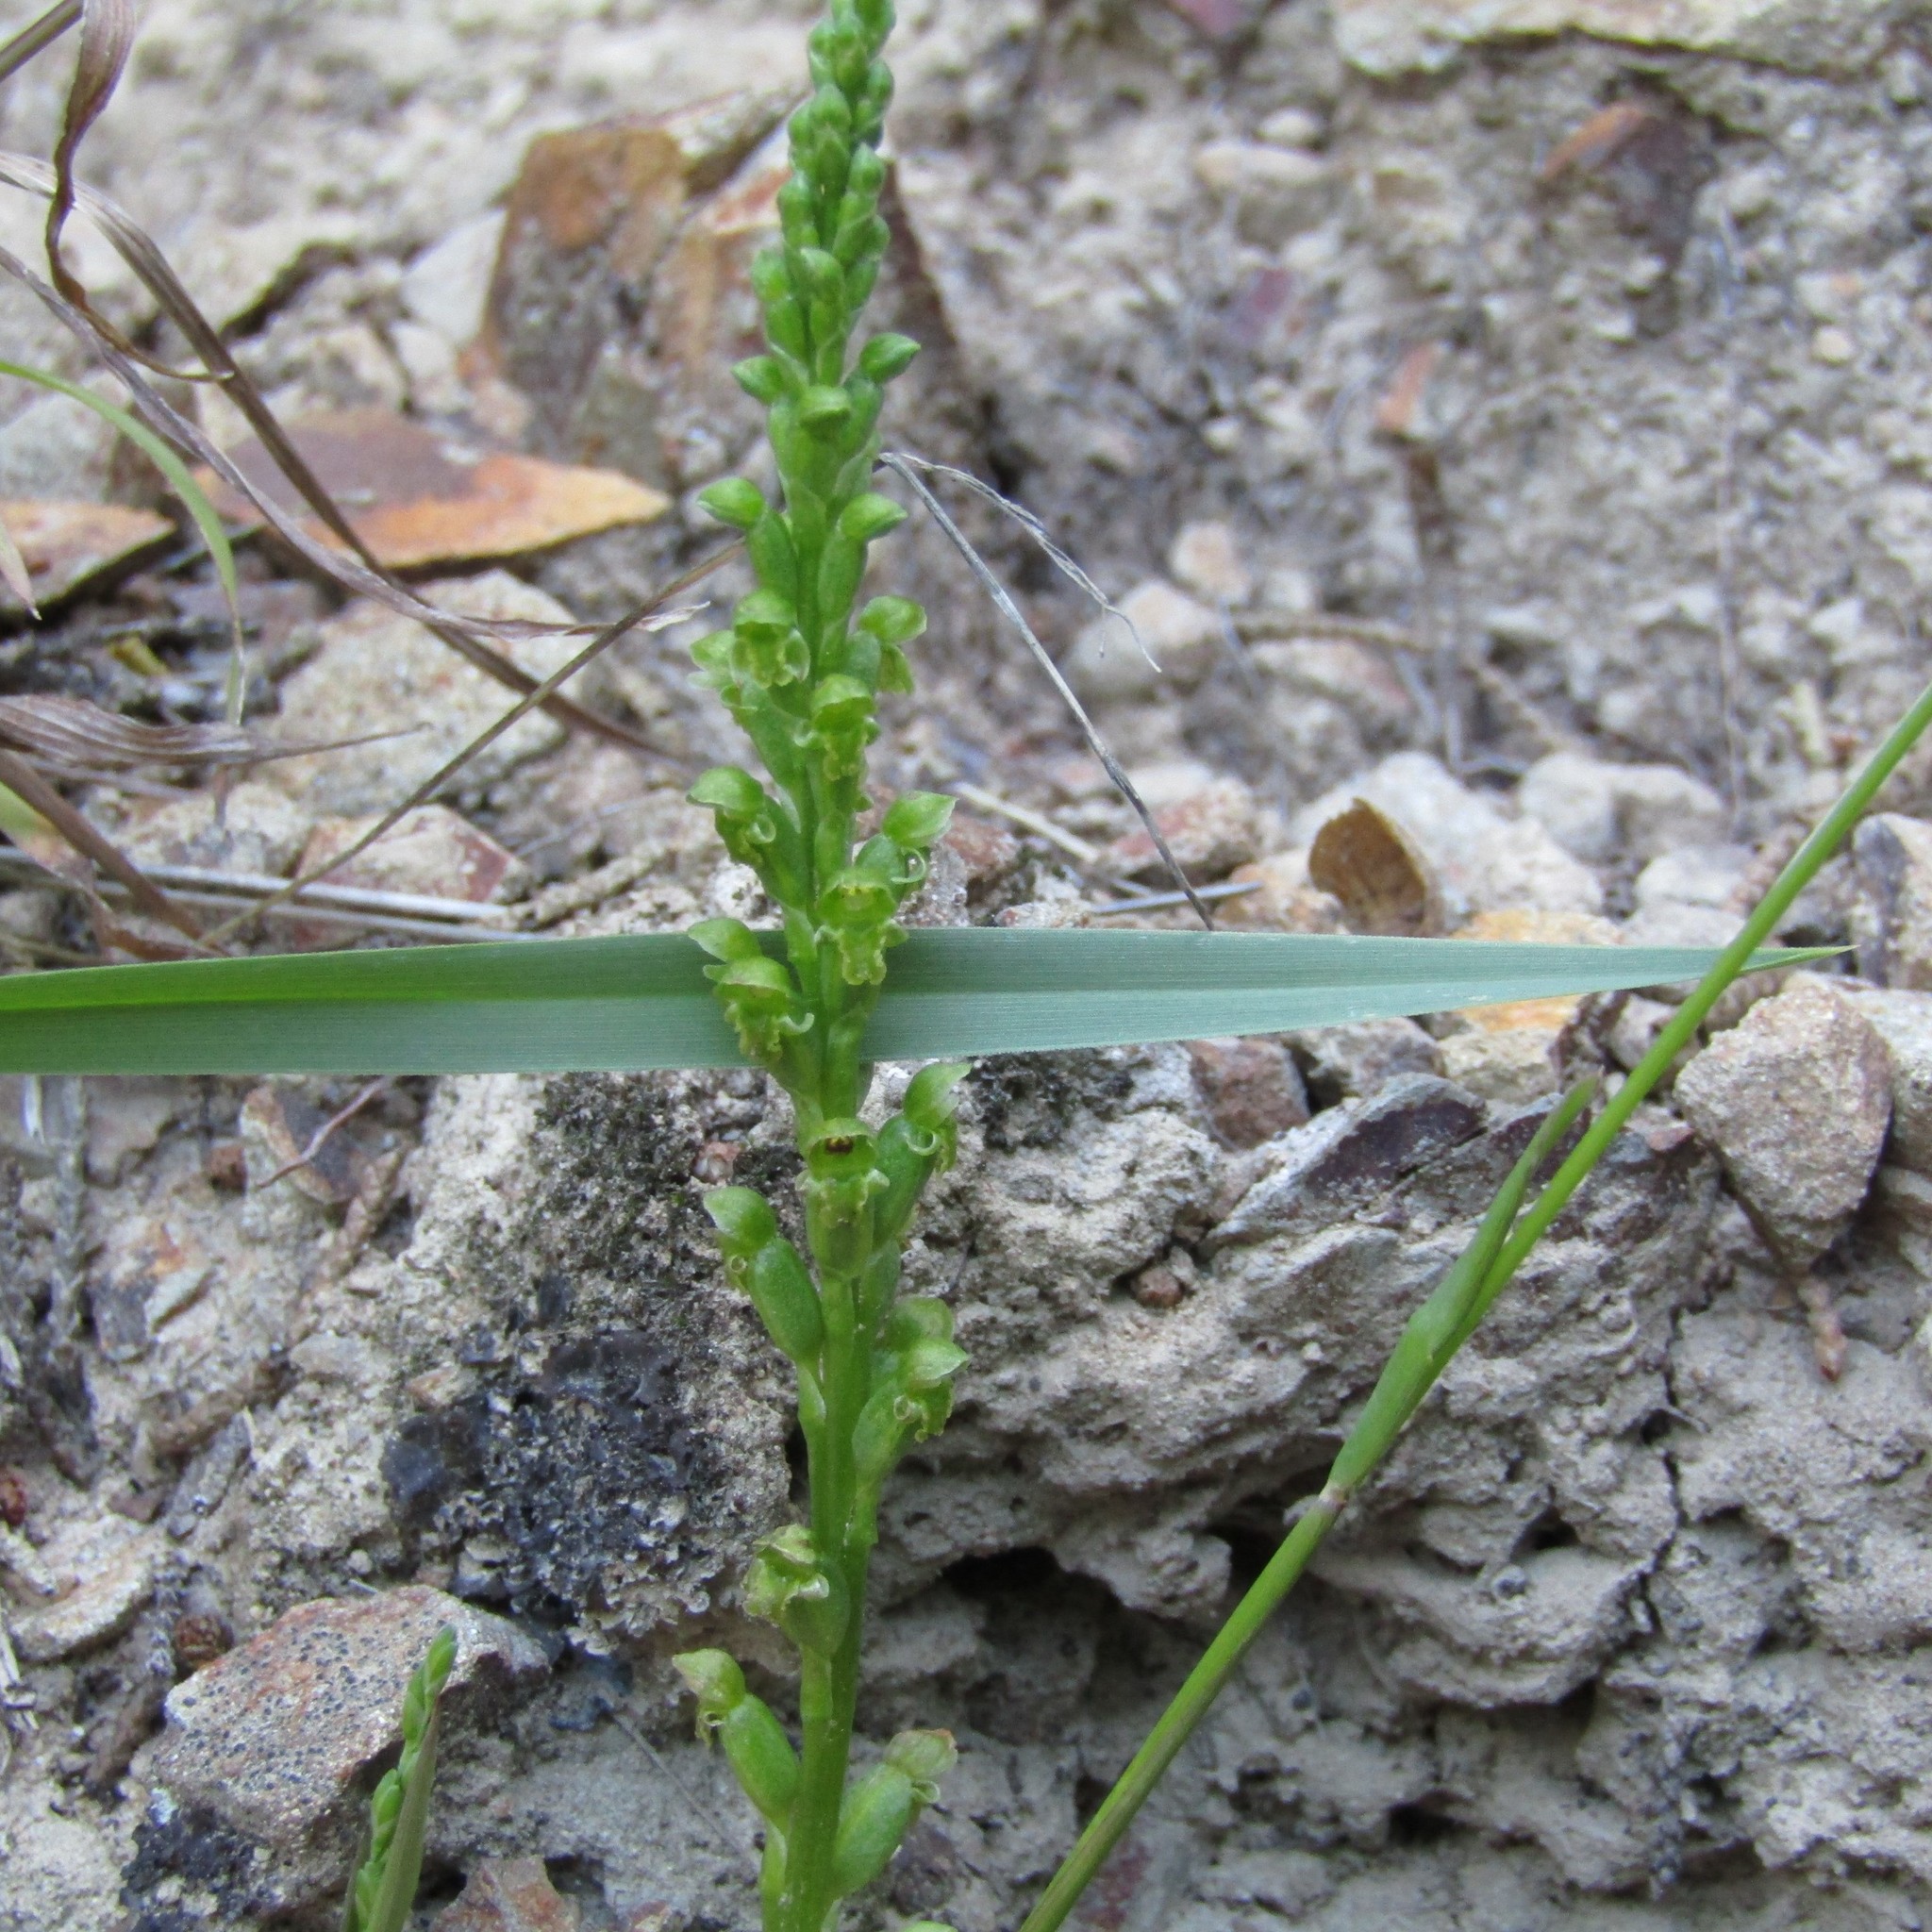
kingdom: Plantae
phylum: Tracheophyta
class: Liliopsida
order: Asparagales
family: Orchidaceae
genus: Microtis
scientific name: Microtis unifolia
